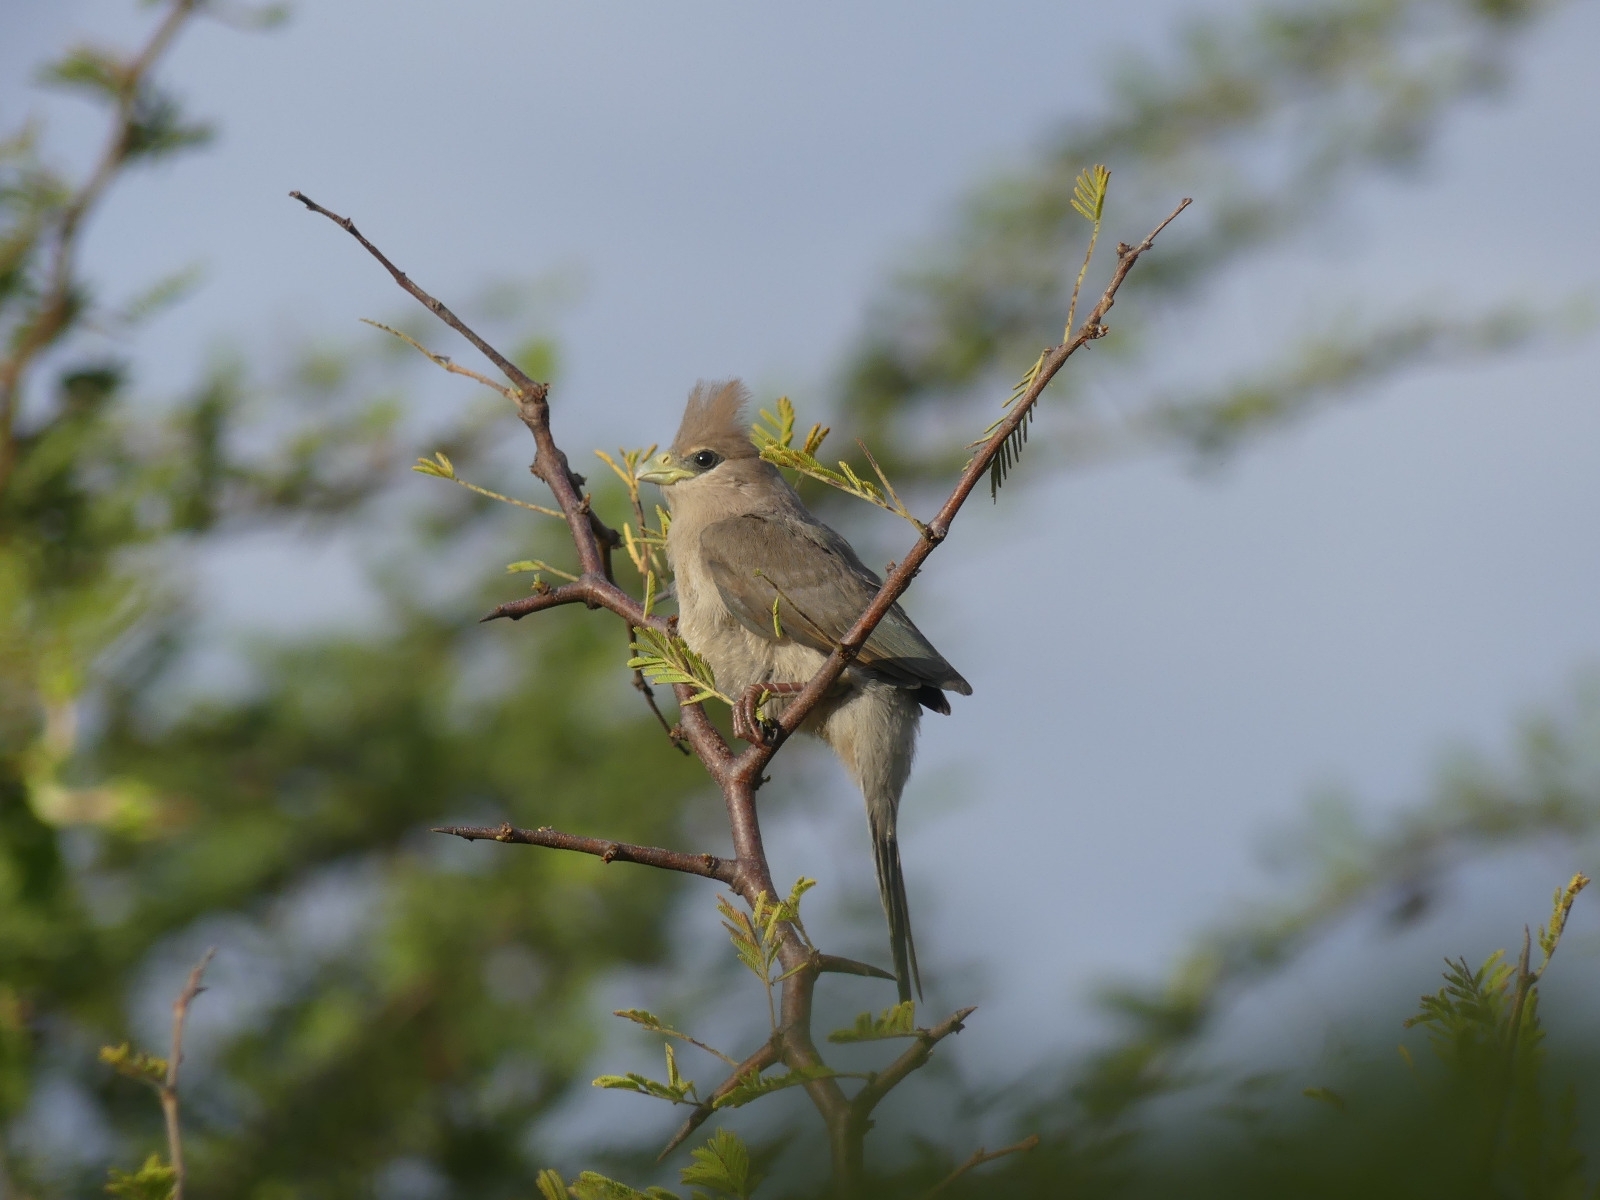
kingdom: Animalia
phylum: Chordata
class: Aves
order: Coliiformes
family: Coliidae
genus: Urocolius
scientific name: Urocolius macrourus
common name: Blue-naped mousebird
